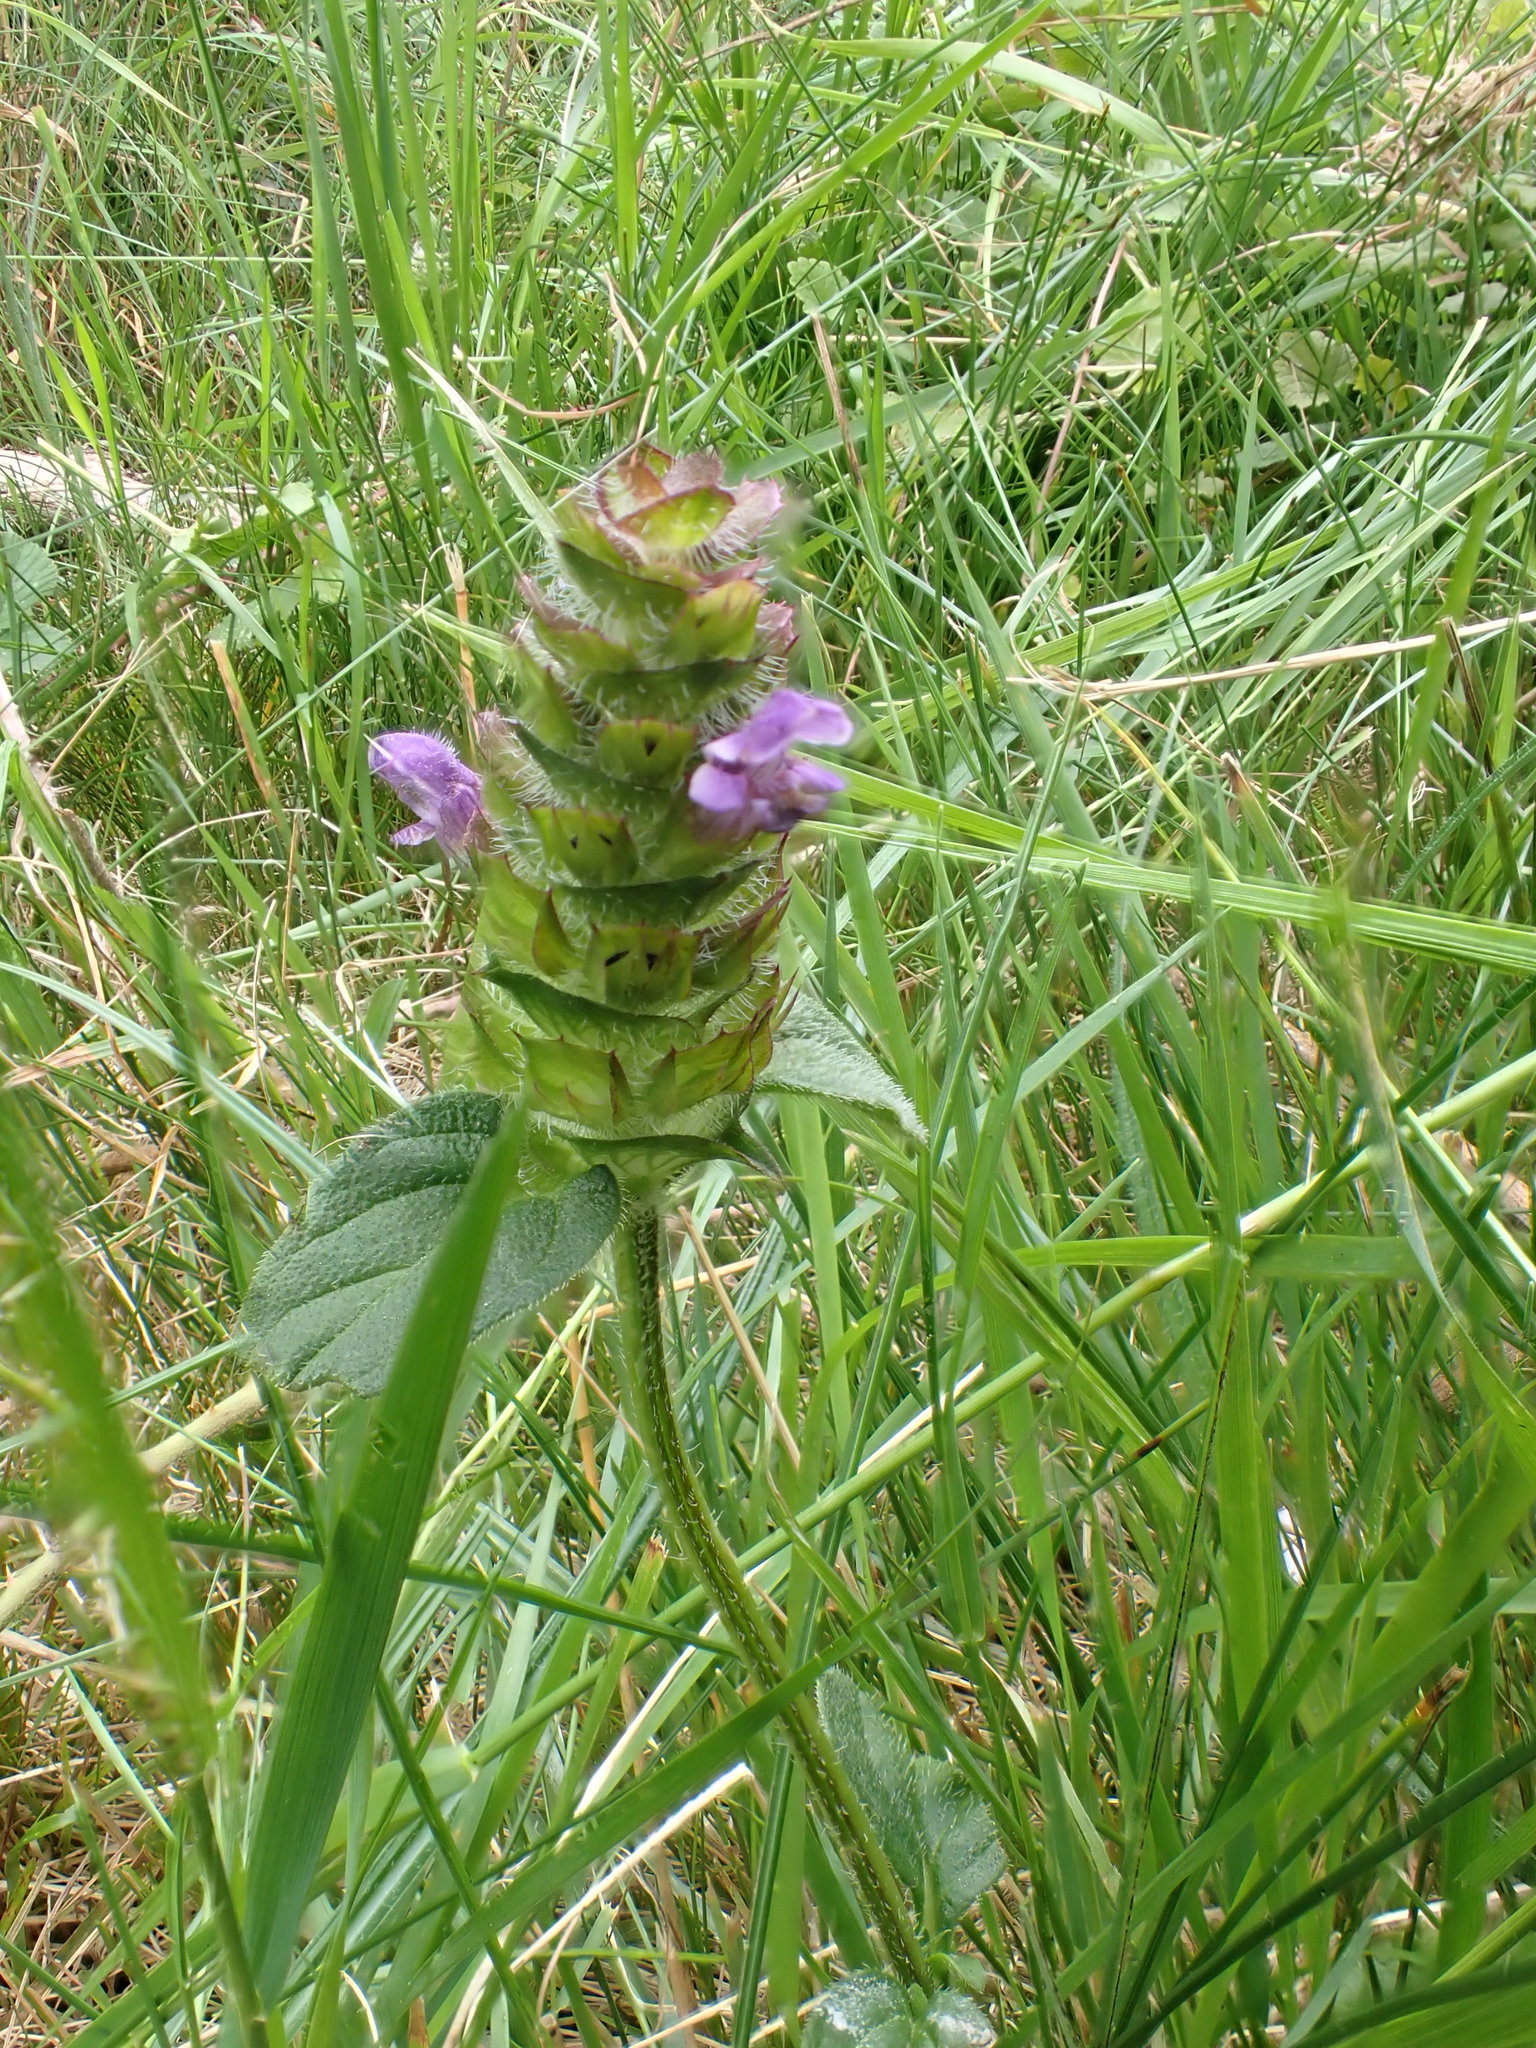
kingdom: Plantae
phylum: Tracheophyta
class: Magnoliopsida
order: Lamiales
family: Lamiaceae
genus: Prunella
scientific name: Prunella vulgaris
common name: Heal-all
